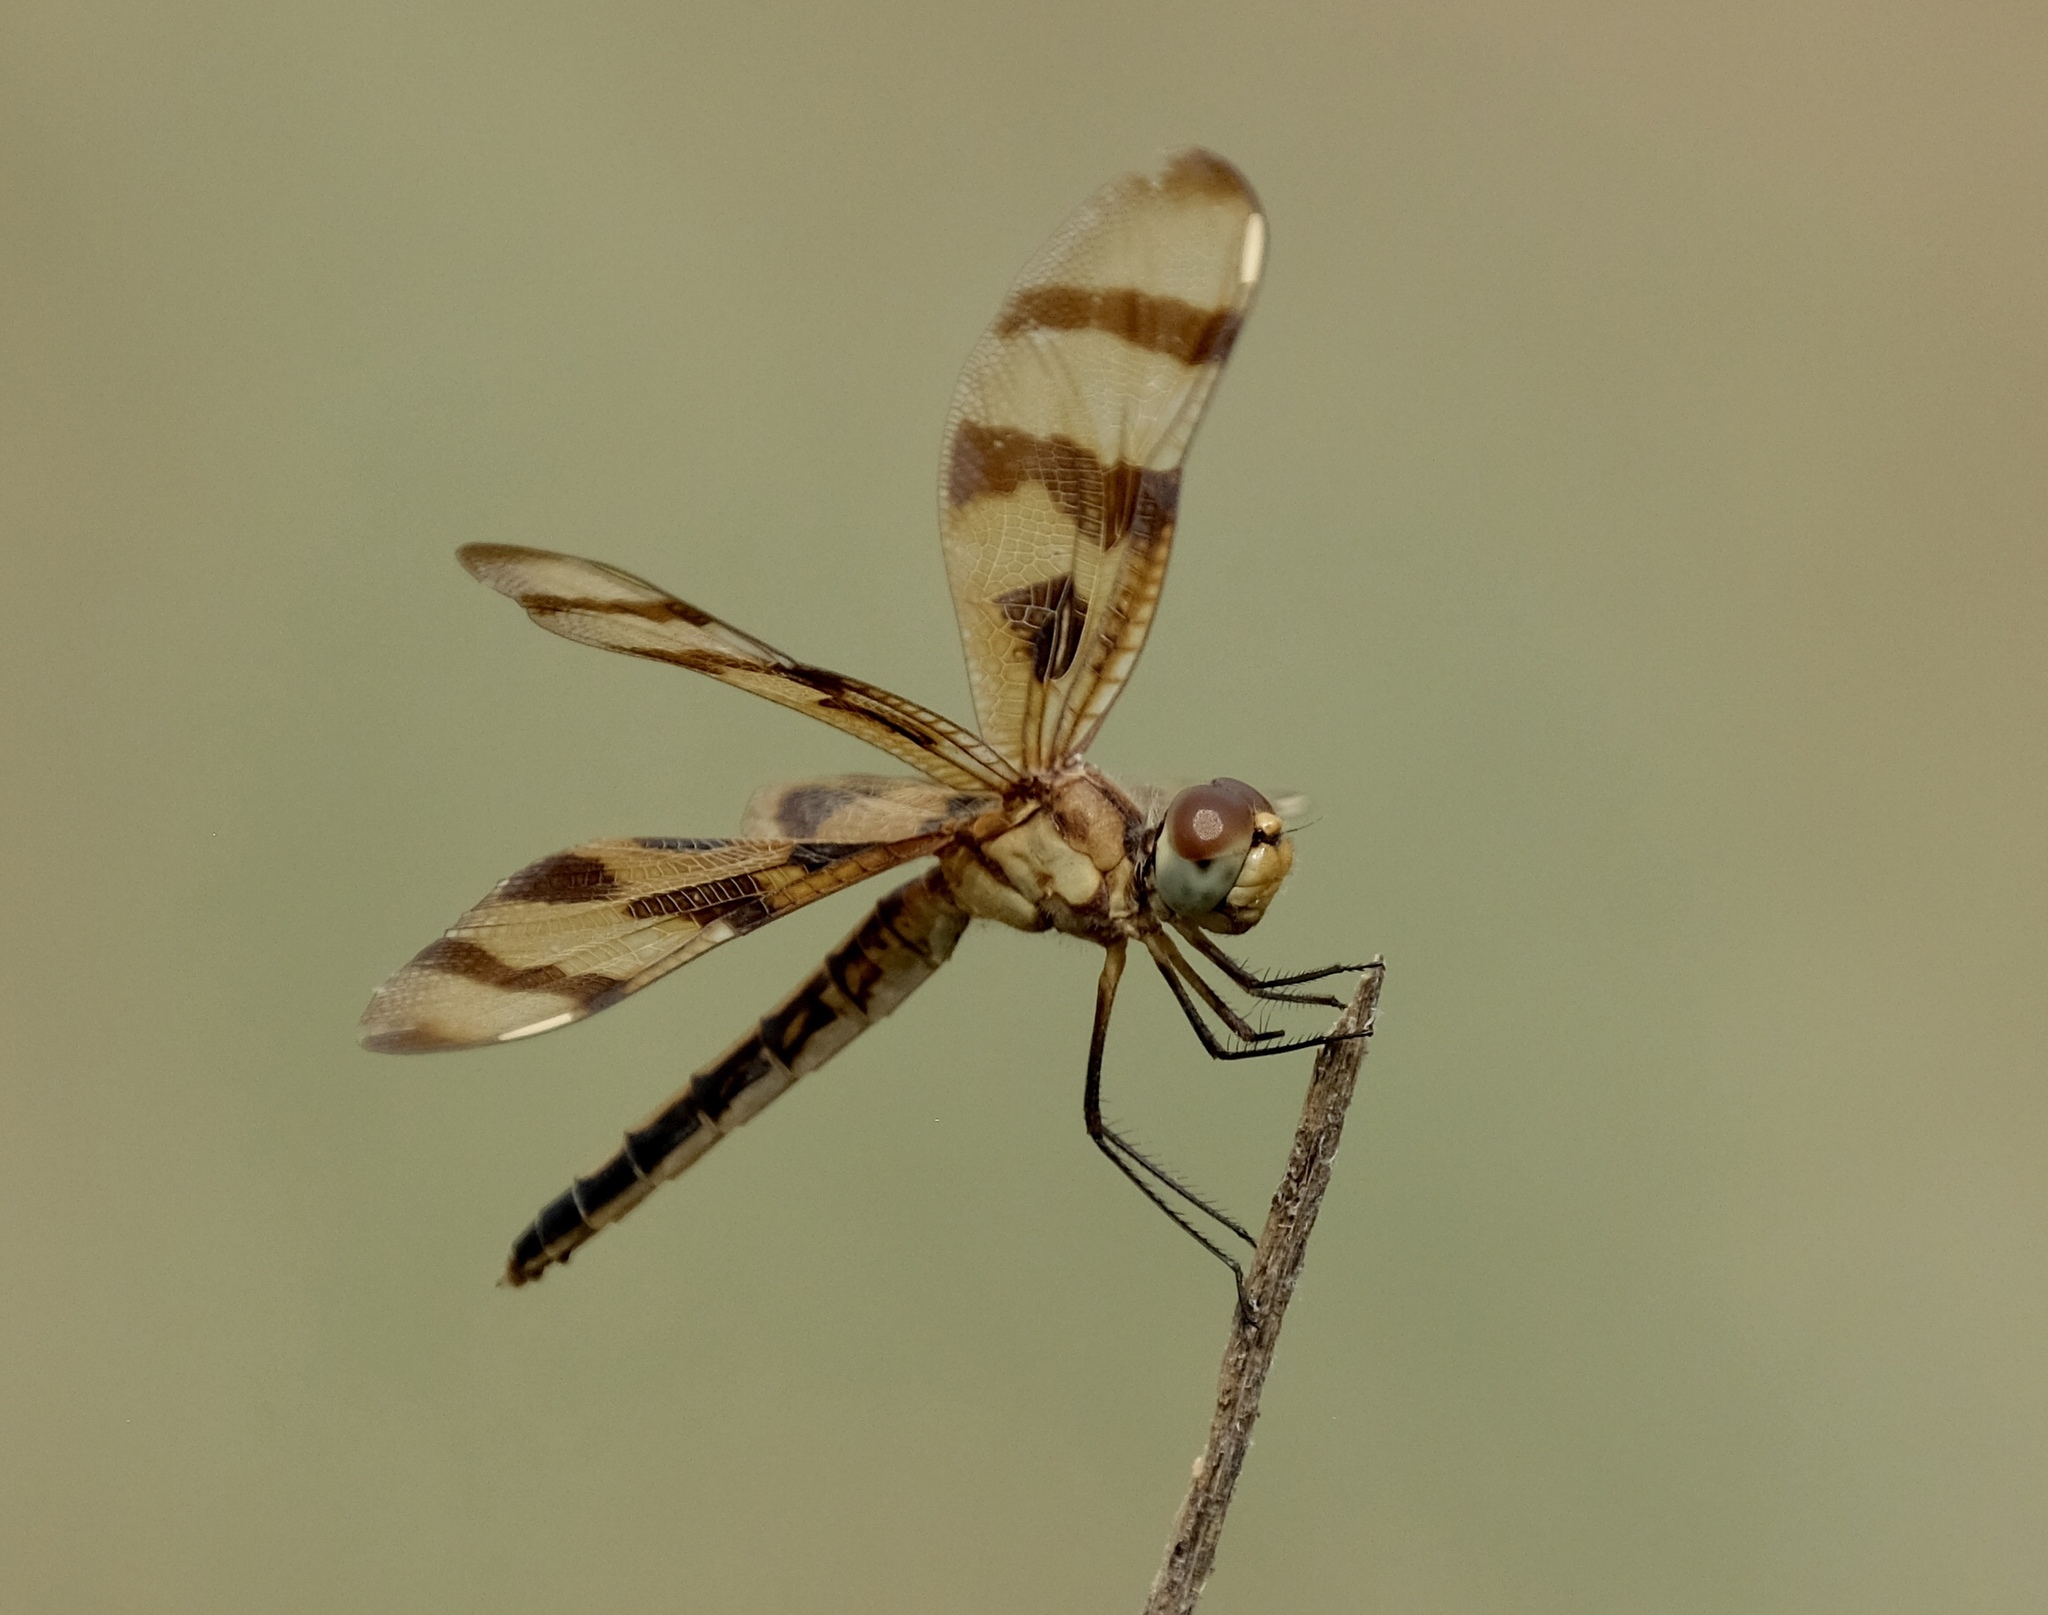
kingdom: Animalia
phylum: Arthropoda
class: Insecta
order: Odonata
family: Libellulidae
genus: Celithemis
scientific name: Celithemis eponina
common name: Halloween pennant
